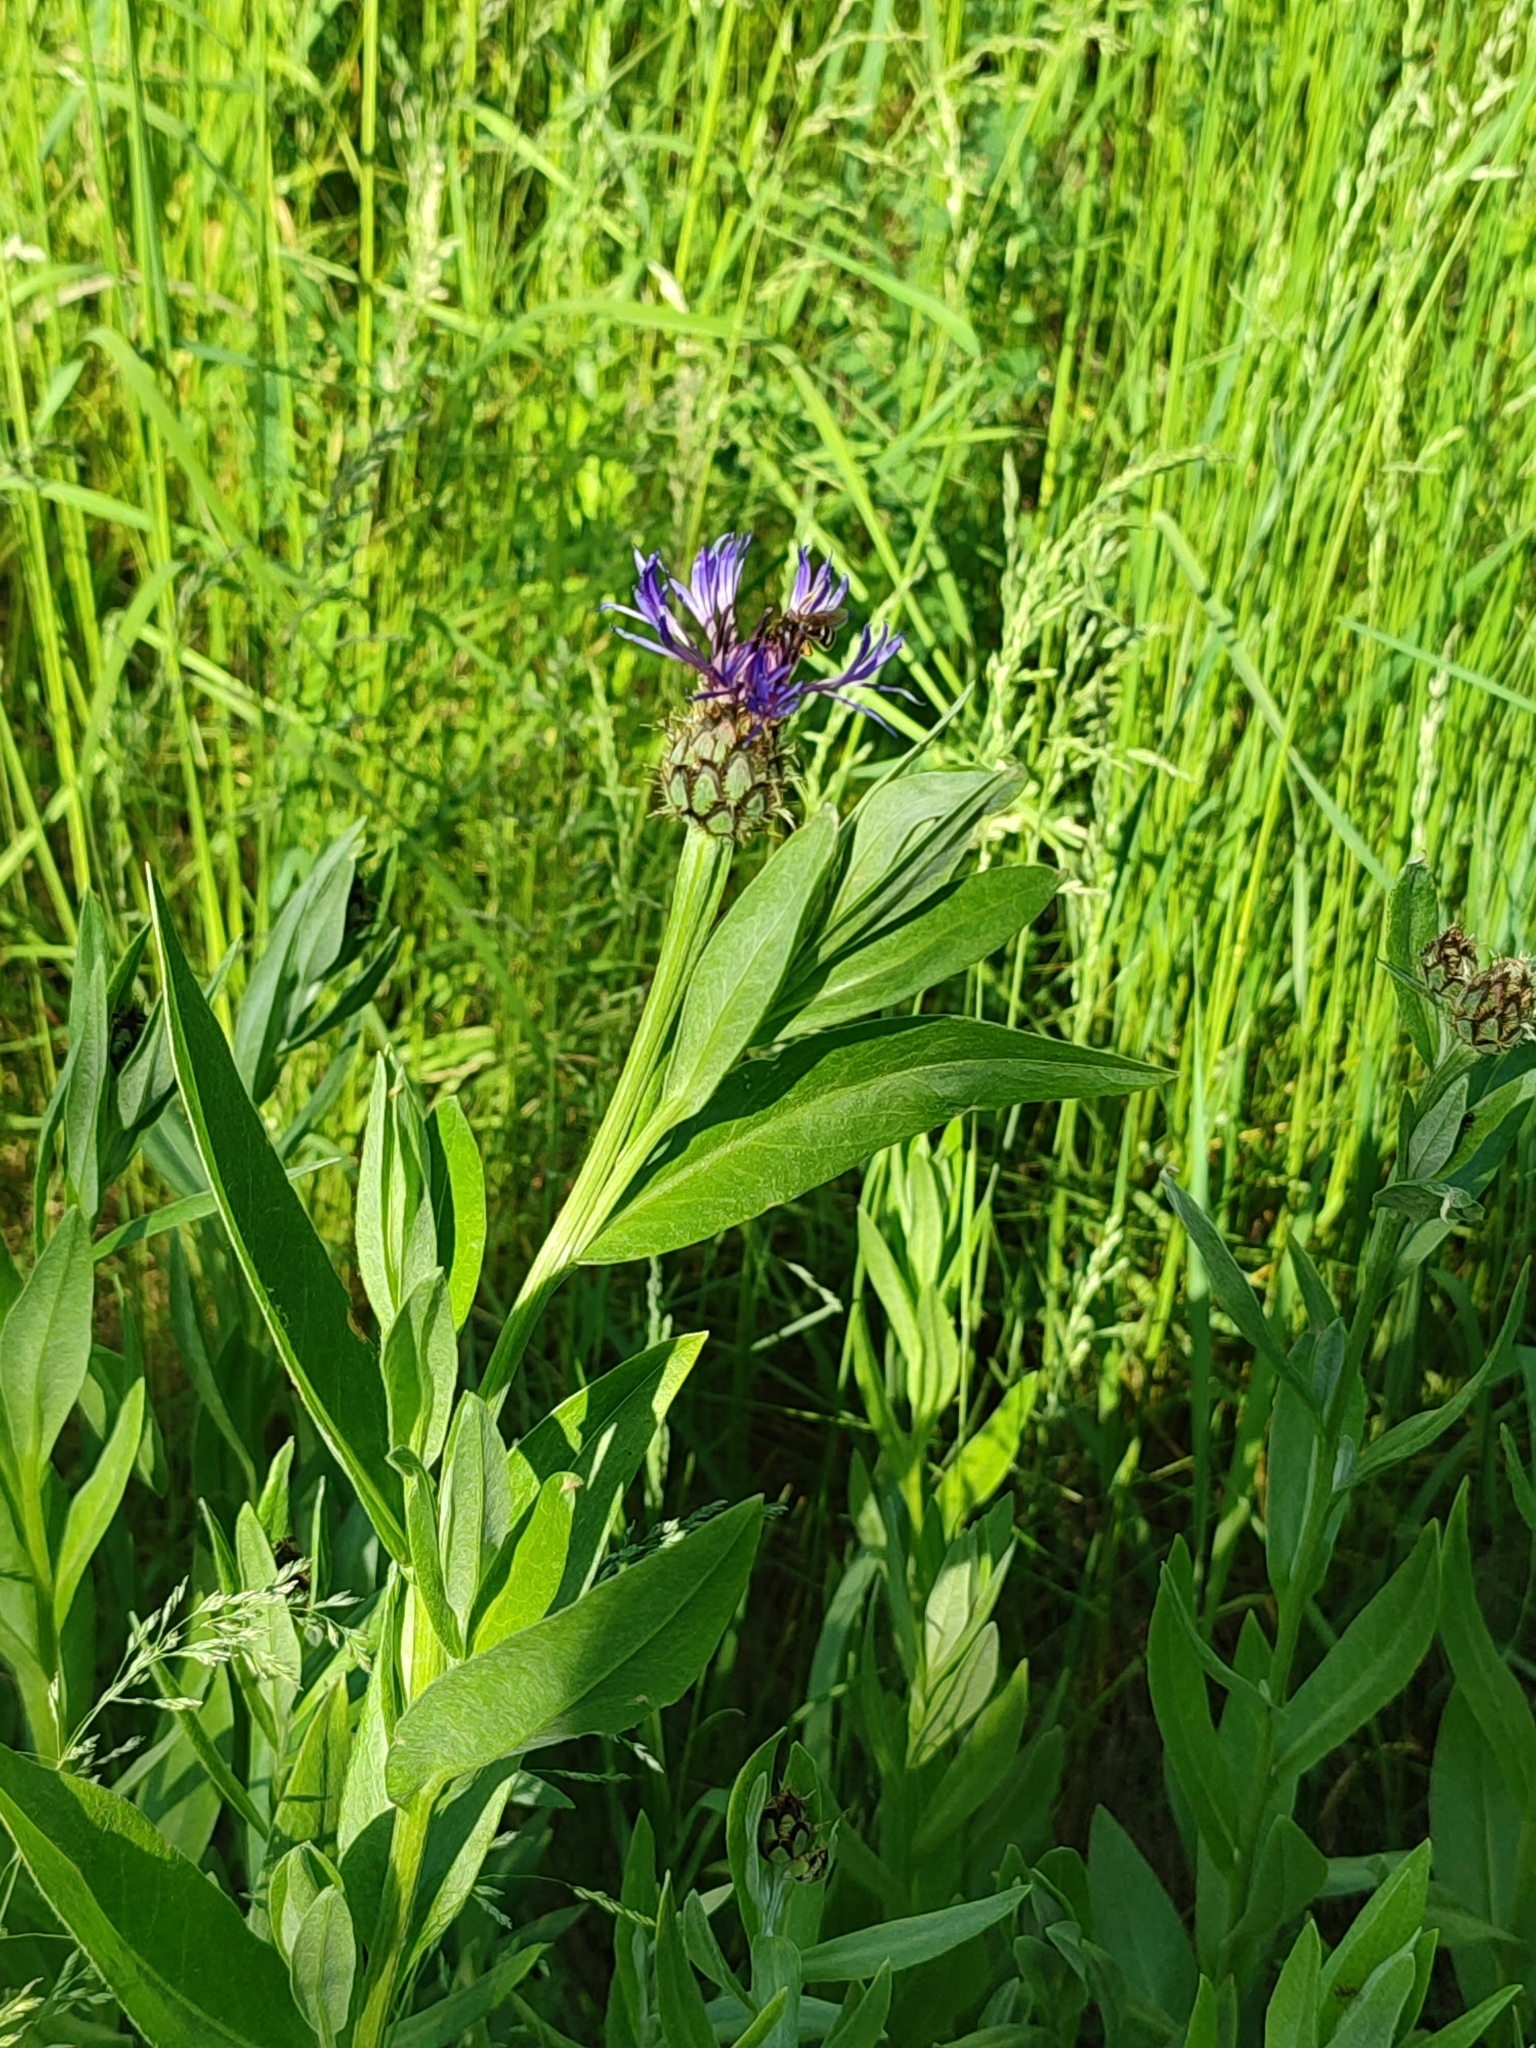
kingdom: Plantae
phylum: Tracheophyta
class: Magnoliopsida
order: Asterales
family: Asteraceae
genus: Centaurea
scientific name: Centaurea montana
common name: Perennial cornflower
